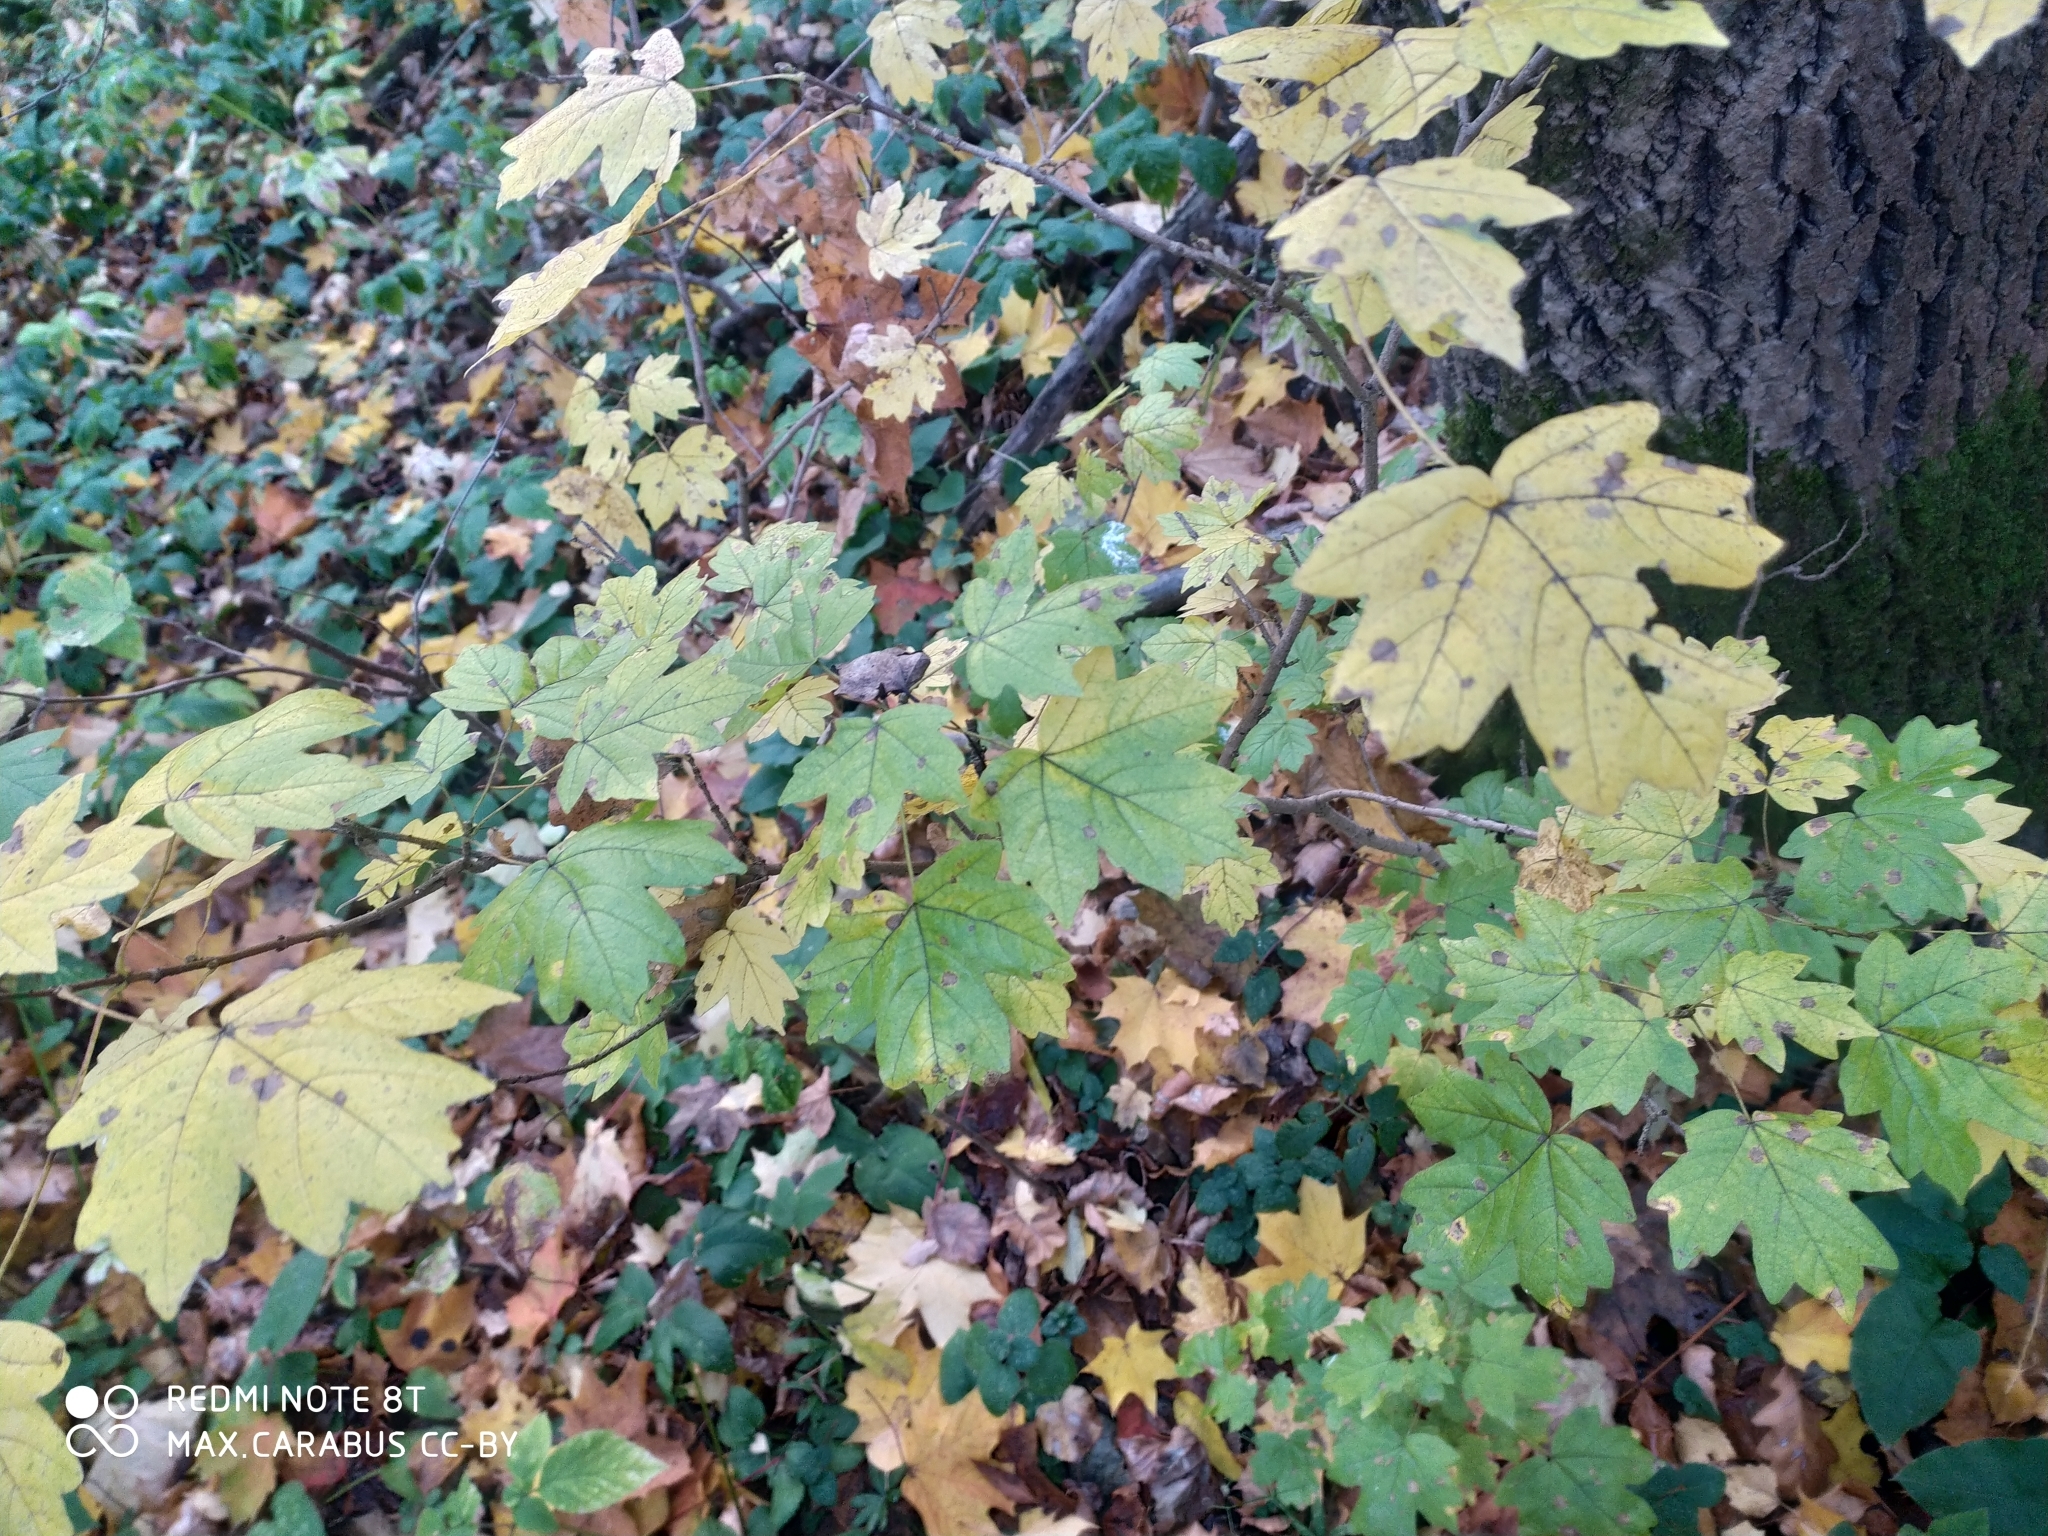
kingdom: Plantae
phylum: Tracheophyta
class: Magnoliopsida
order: Sapindales
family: Sapindaceae
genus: Acer
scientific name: Acer campestre
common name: Field maple
